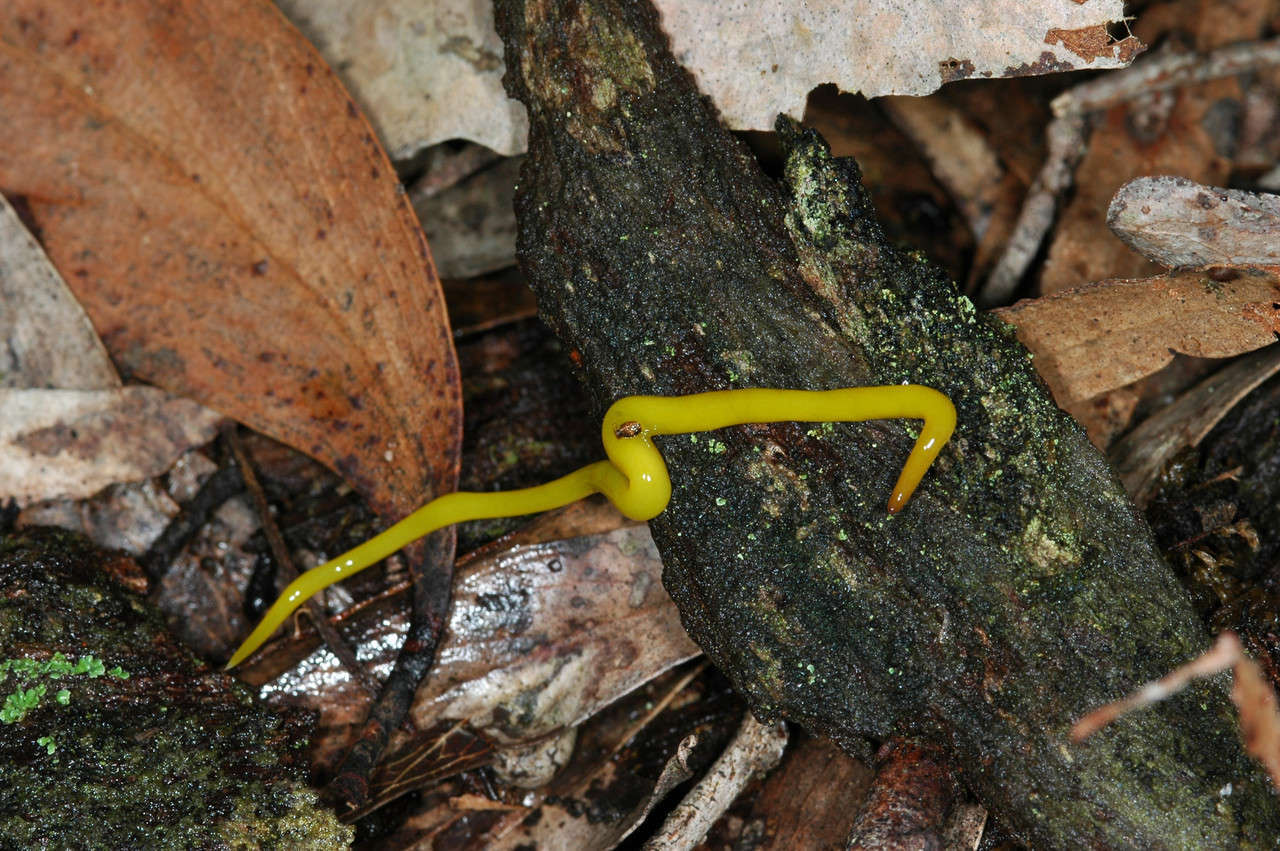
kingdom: Animalia
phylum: Platyhelminthes
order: Tricladida
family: Geoplanidae
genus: Fletchamia
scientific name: Fletchamia sugdeni
